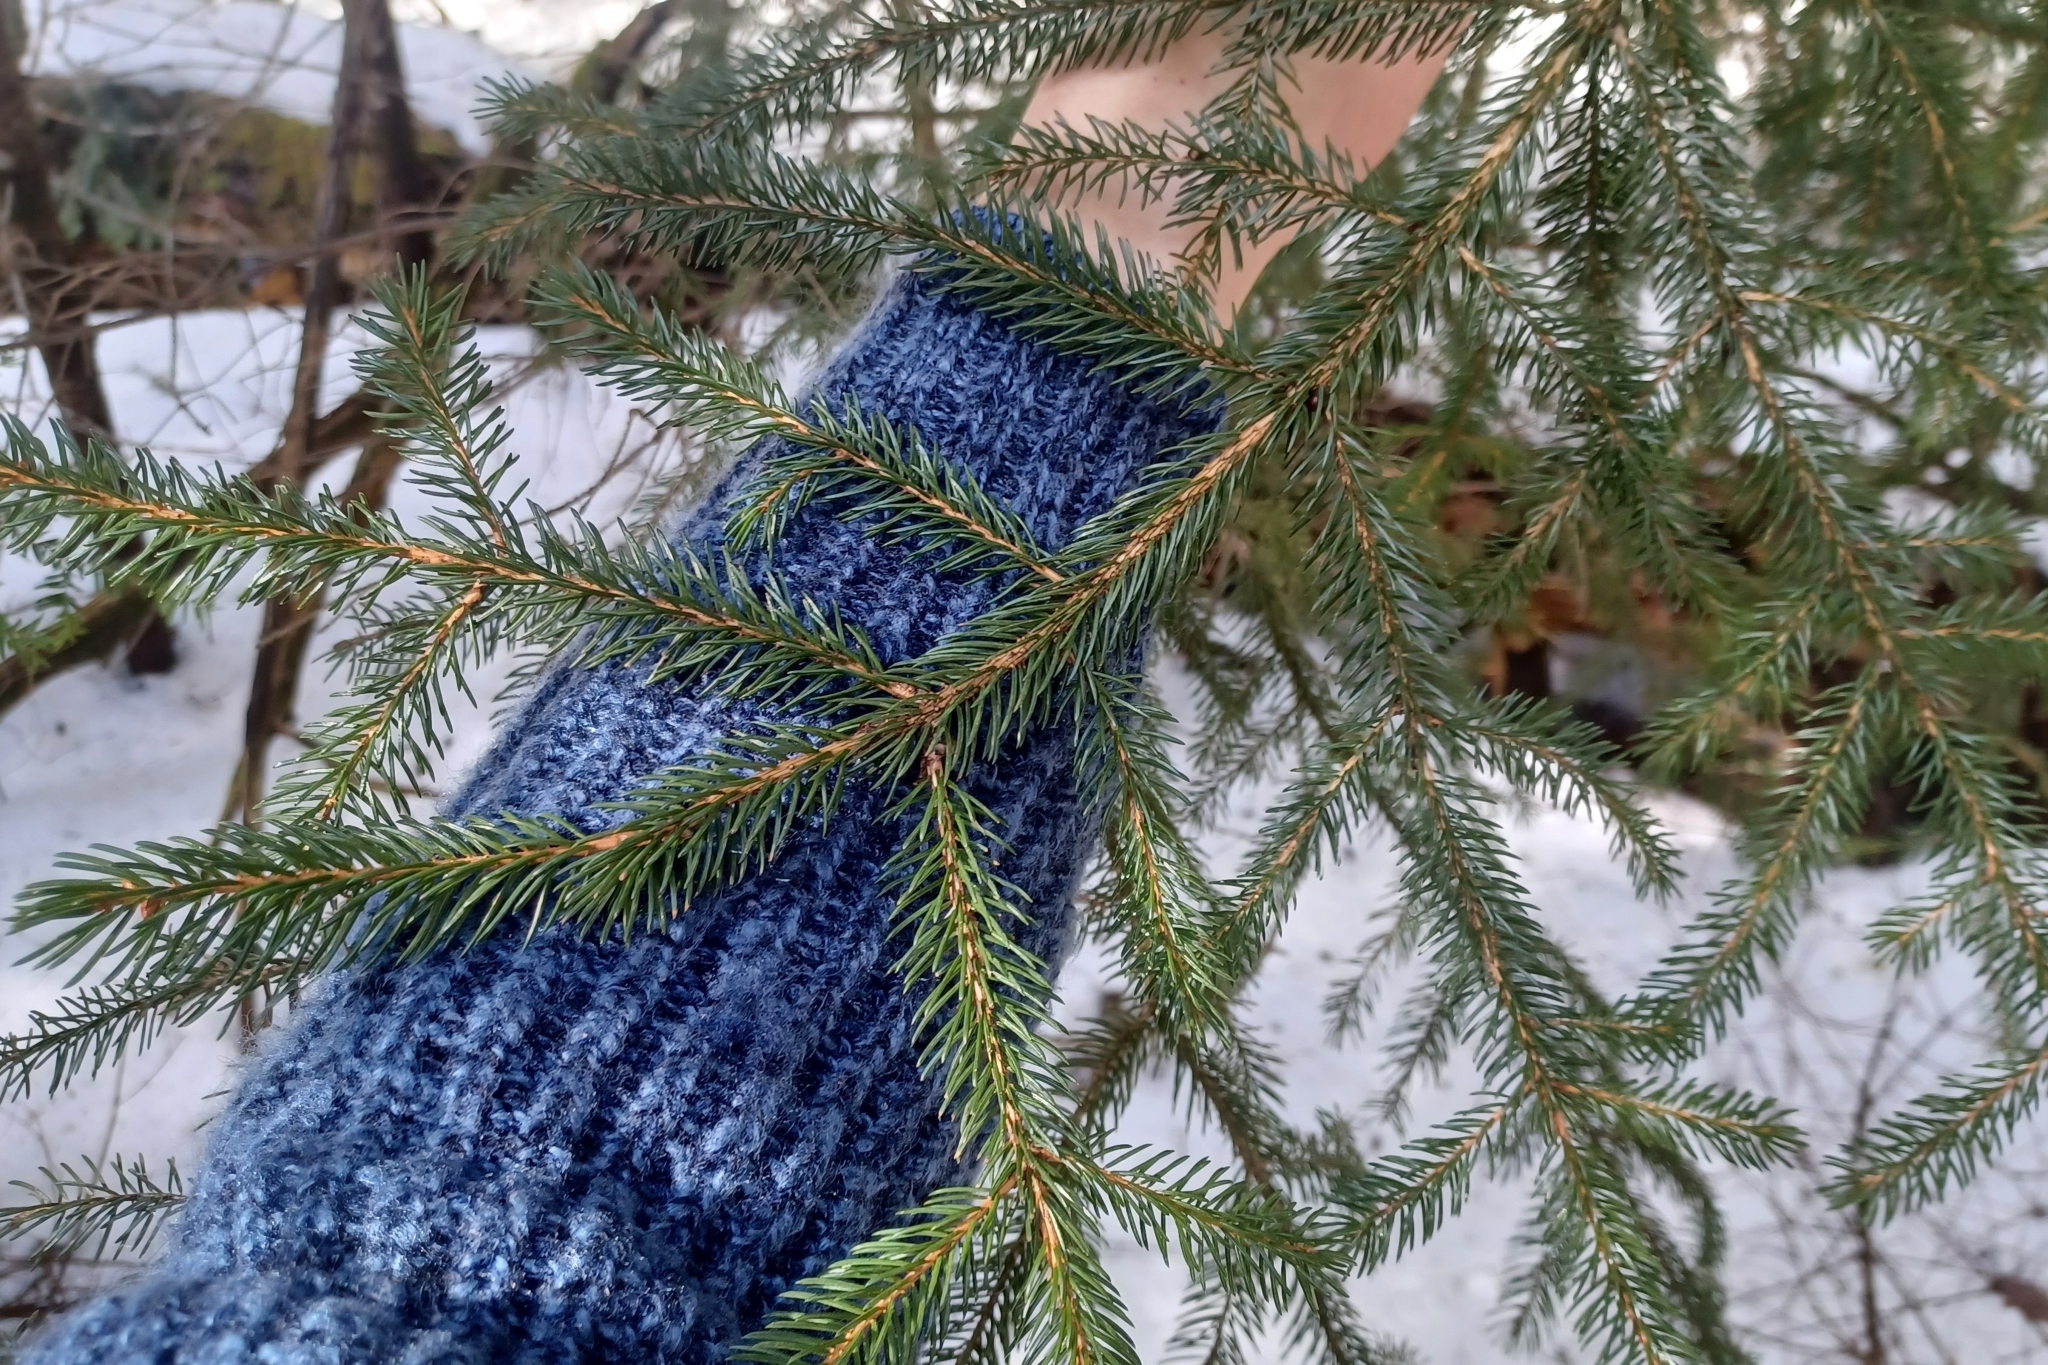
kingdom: Plantae
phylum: Tracheophyta
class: Pinopsida
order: Pinales
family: Pinaceae
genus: Picea
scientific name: Picea rubens
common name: Red spruce
